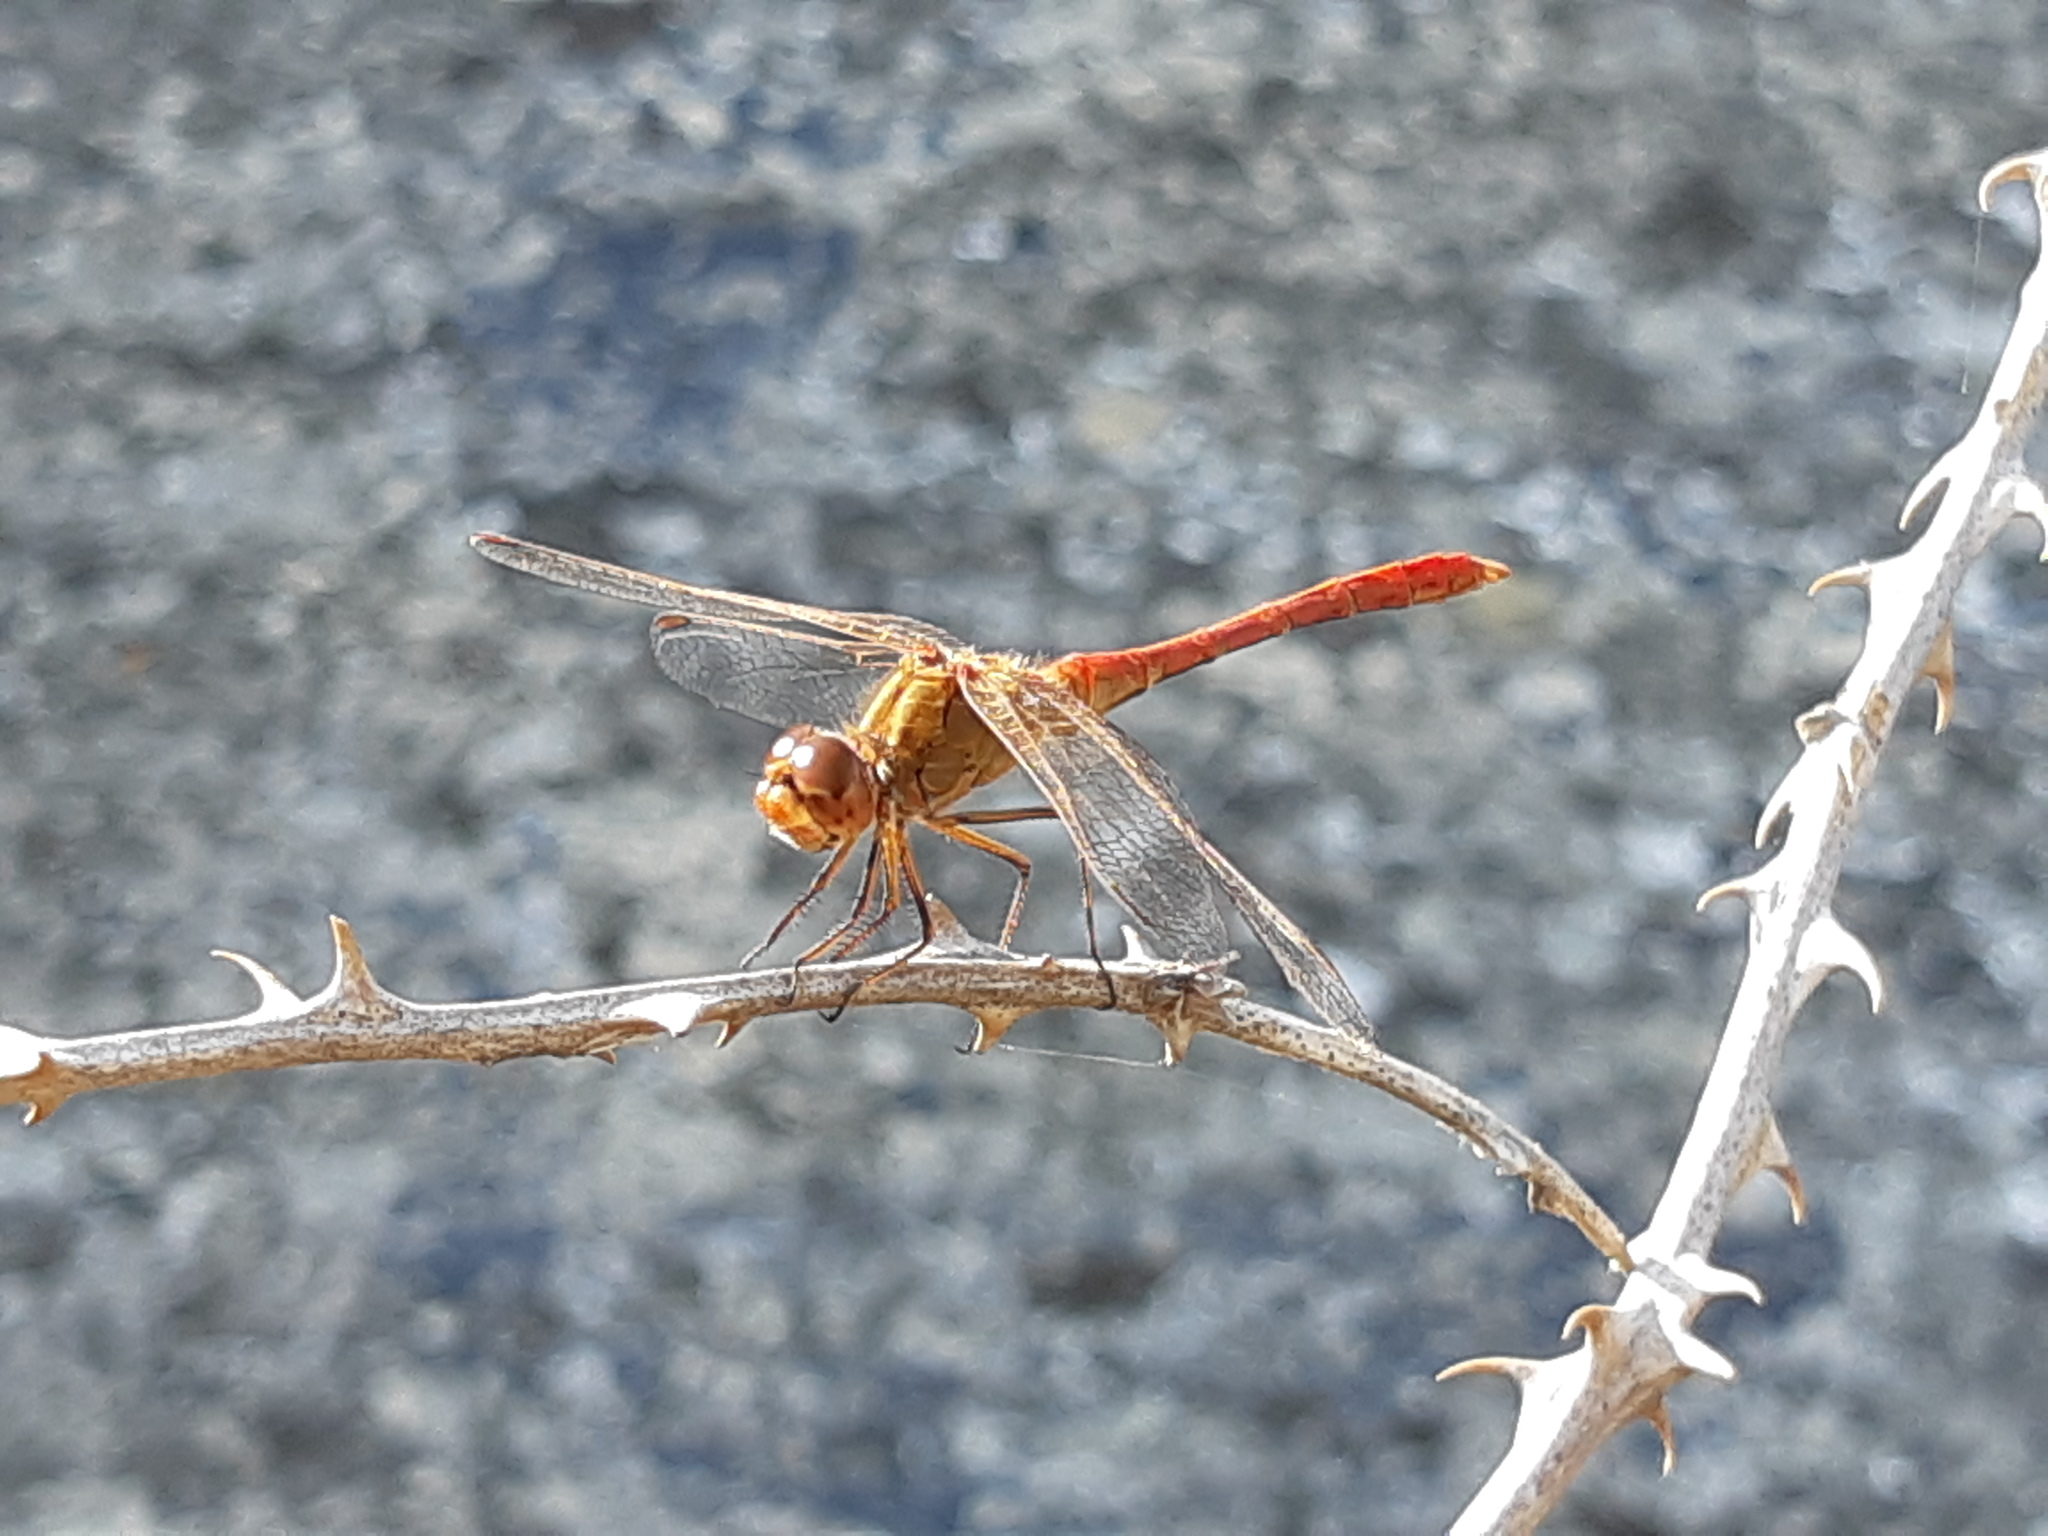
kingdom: Animalia
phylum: Arthropoda
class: Insecta
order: Odonata
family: Libellulidae
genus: Sympetrum
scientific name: Sympetrum meridionale
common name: Southern darter
